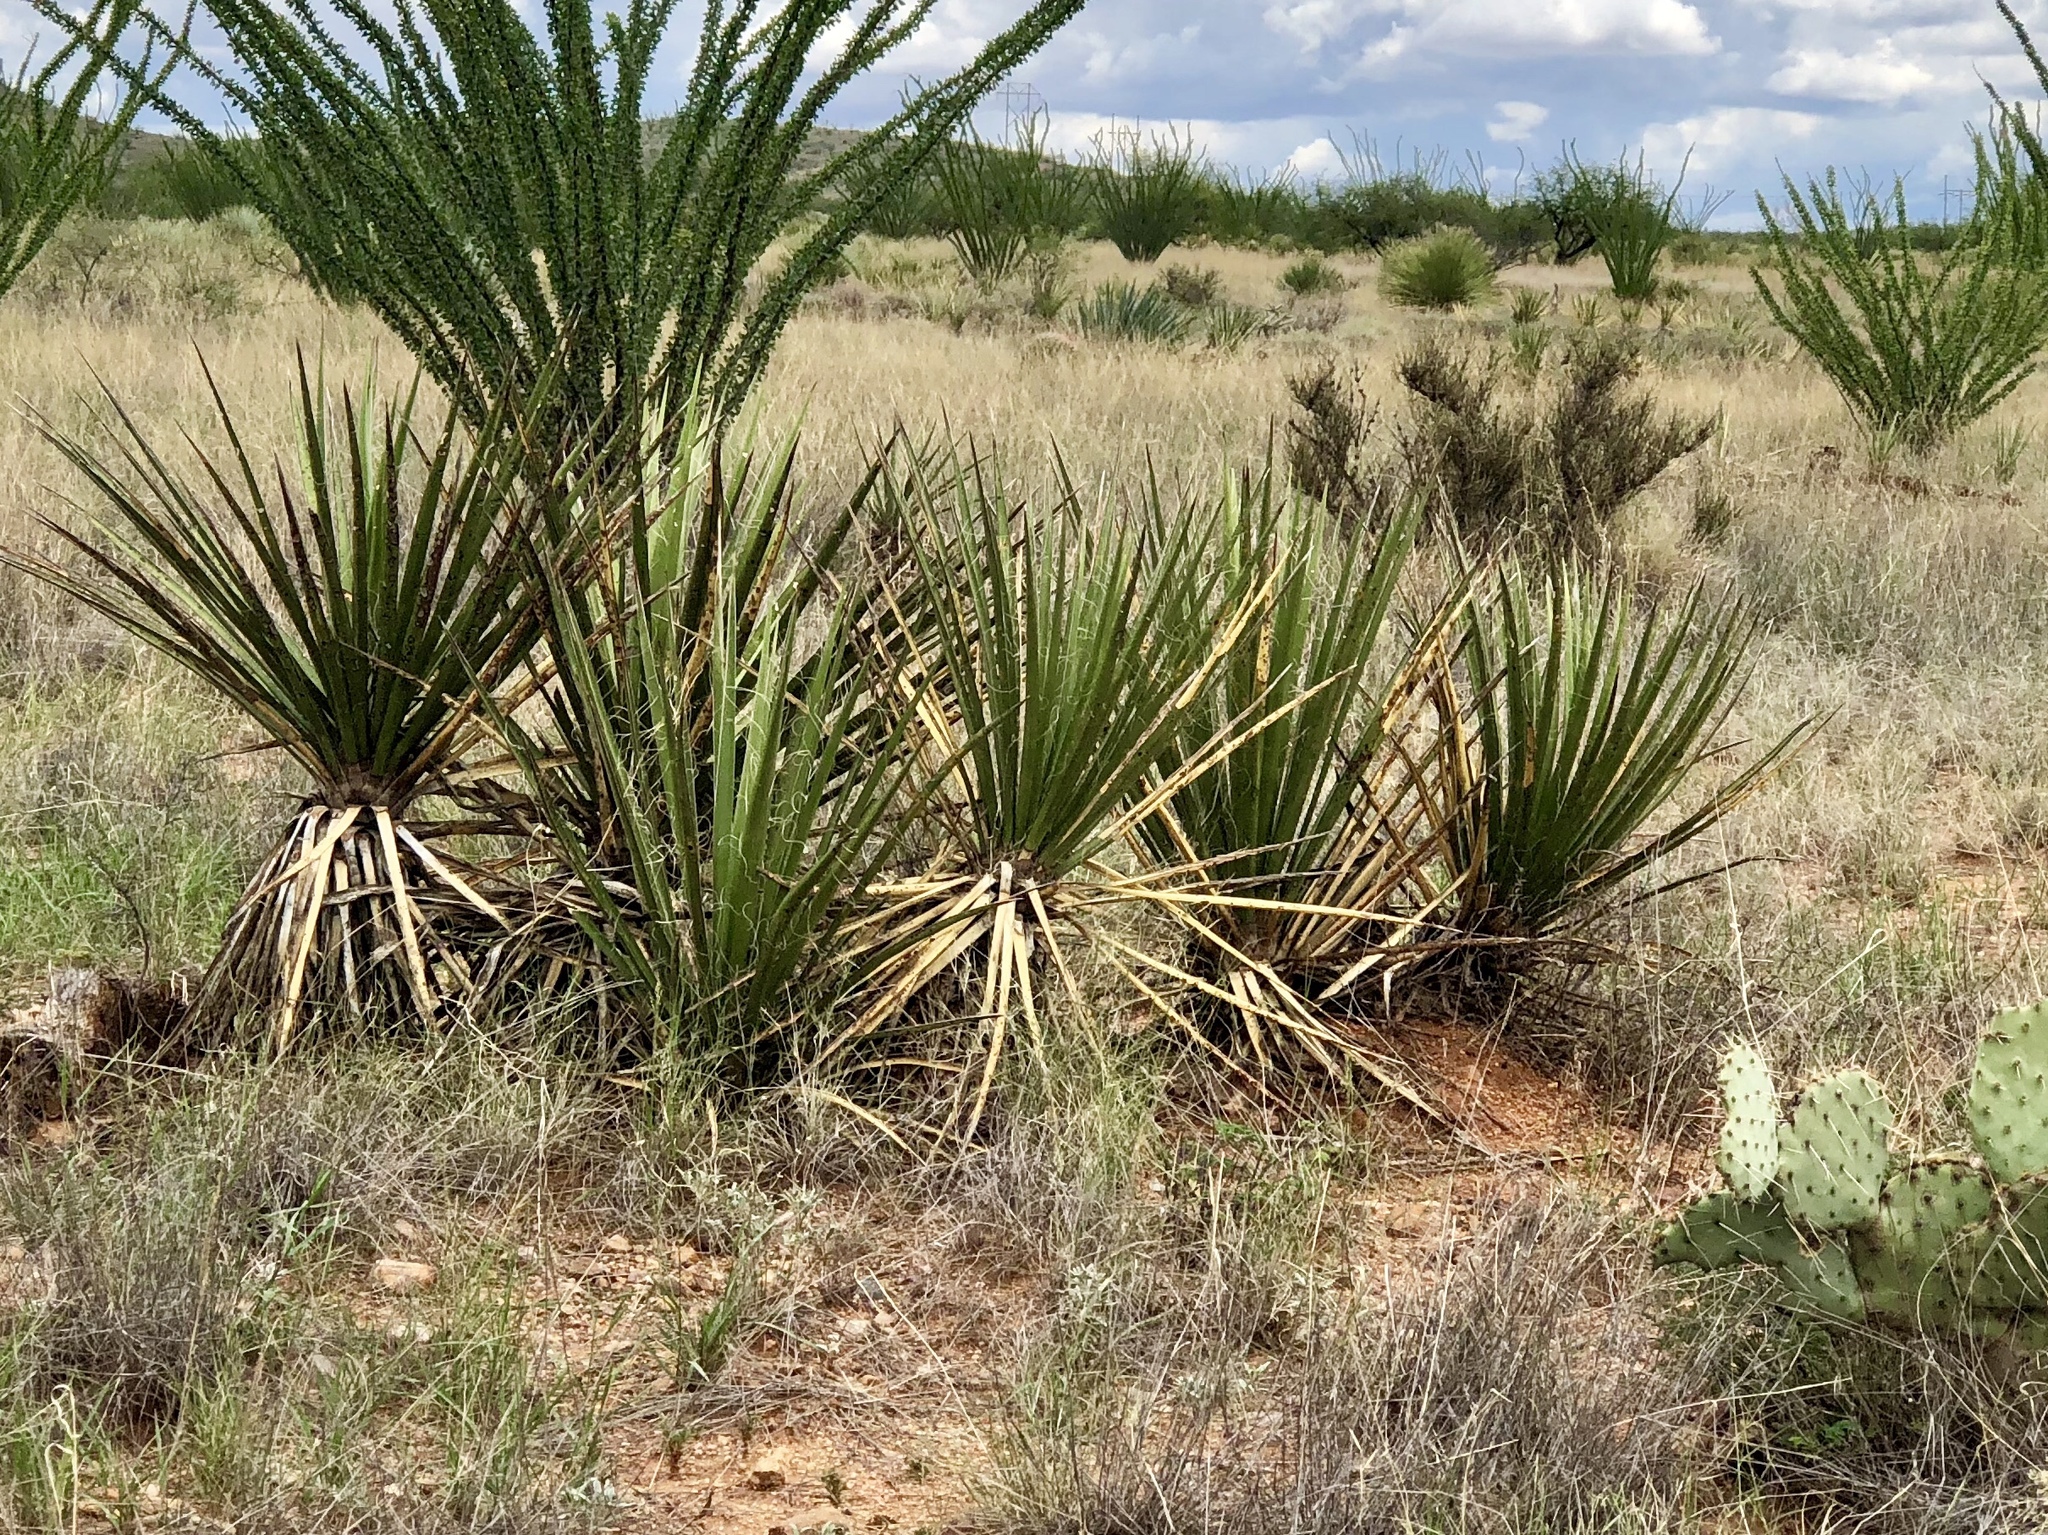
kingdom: Plantae
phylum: Tracheophyta
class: Liliopsida
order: Asparagales
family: Asparagaceae
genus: Yucca
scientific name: Yucca baccata
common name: Banana yucca
